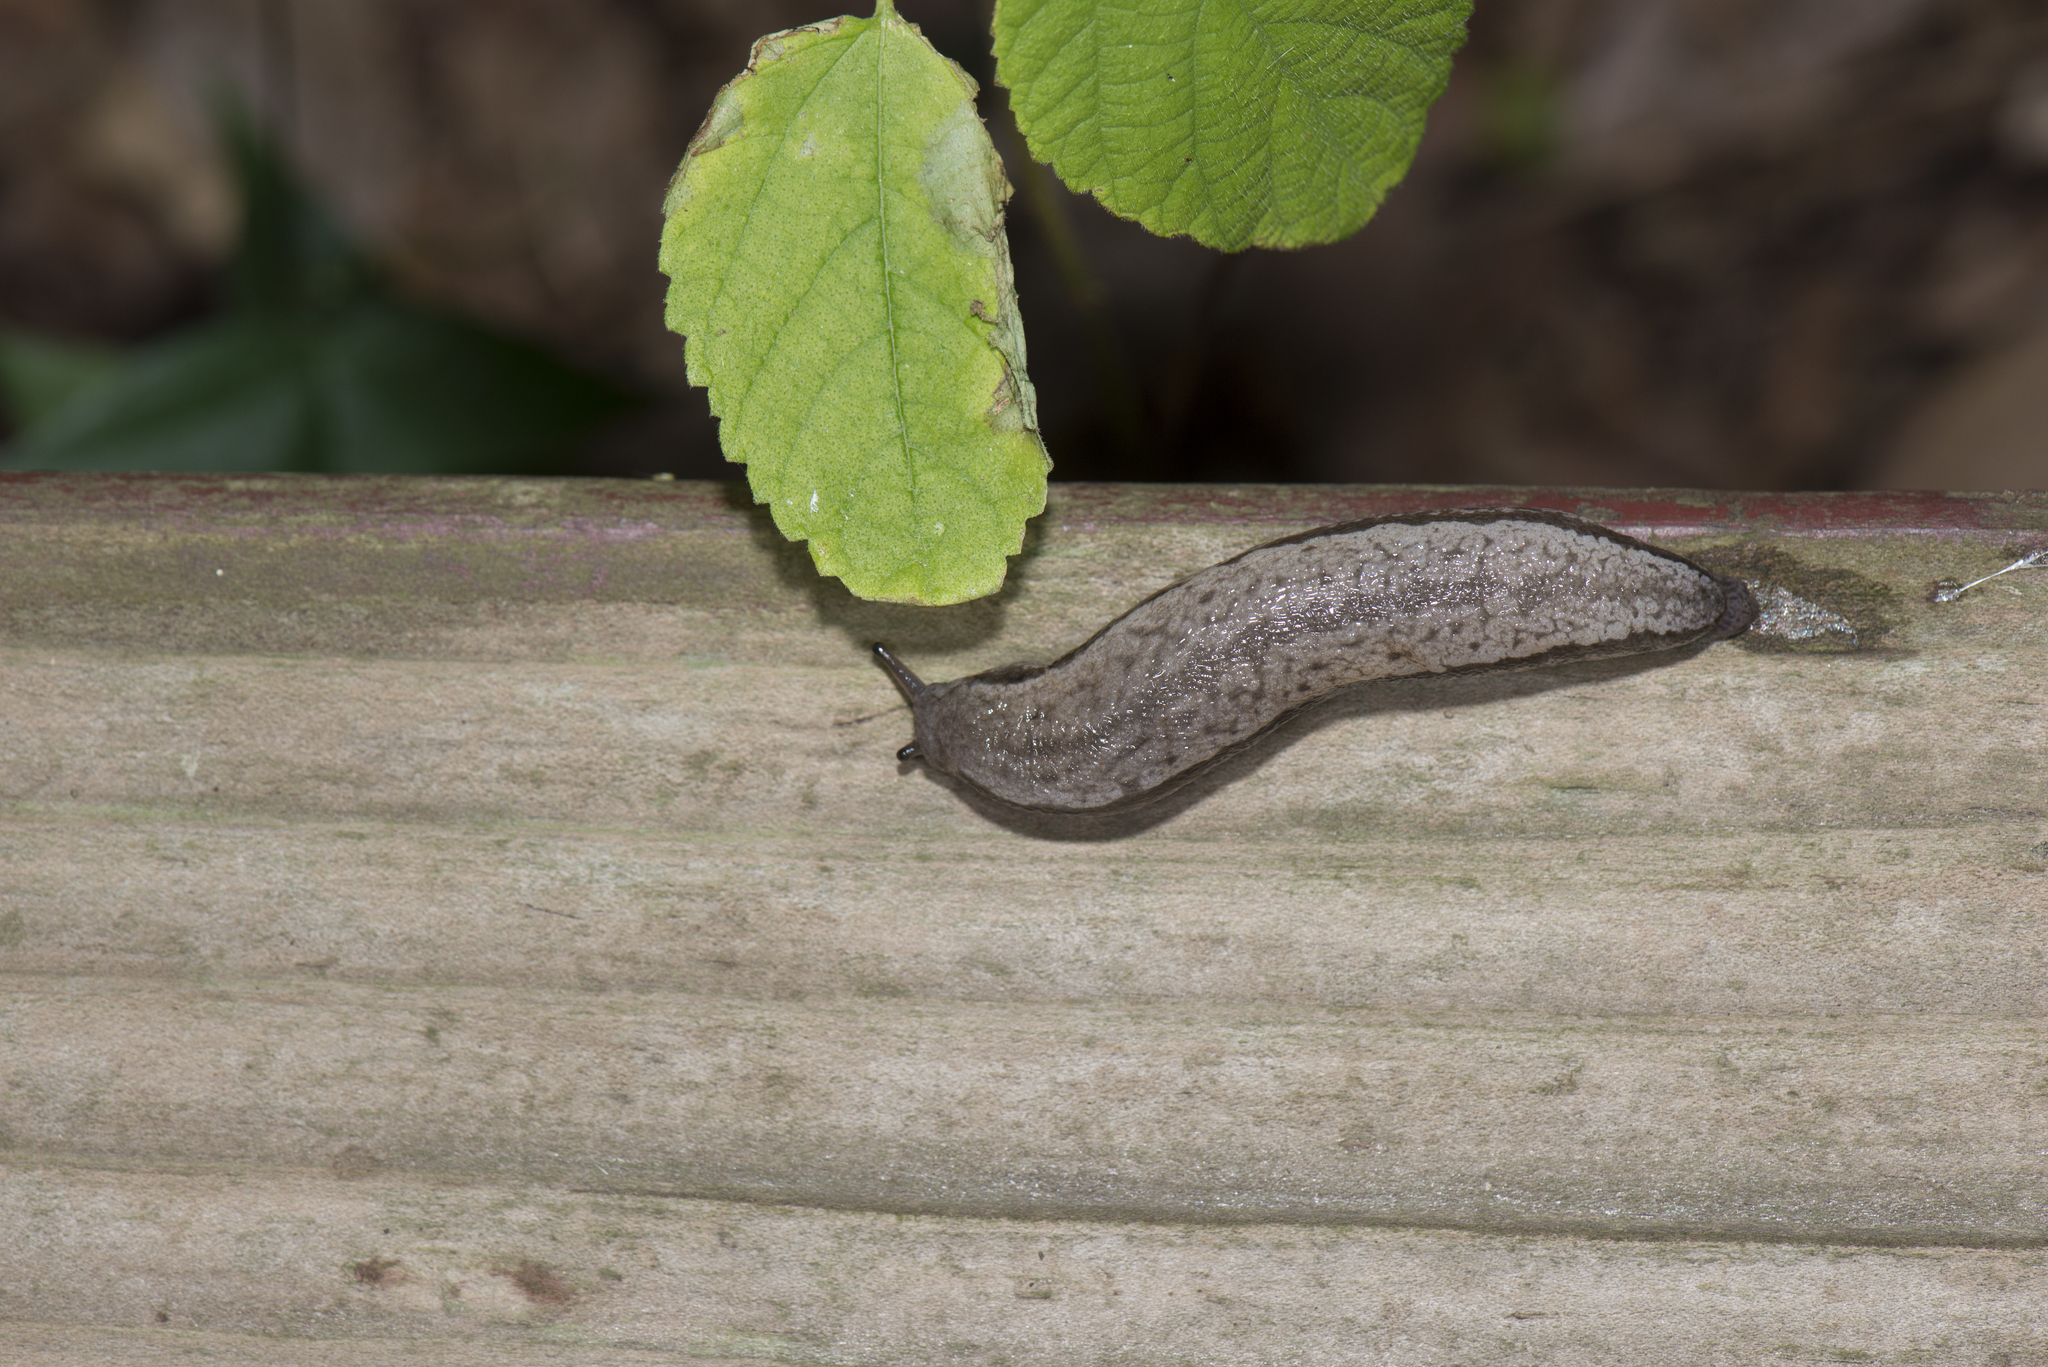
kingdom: Animalia
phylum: Mollusca
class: Gastropoda
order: Stylommatophora
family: Philomycidae
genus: Meghimatium
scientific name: Meghimatium bilineatum
